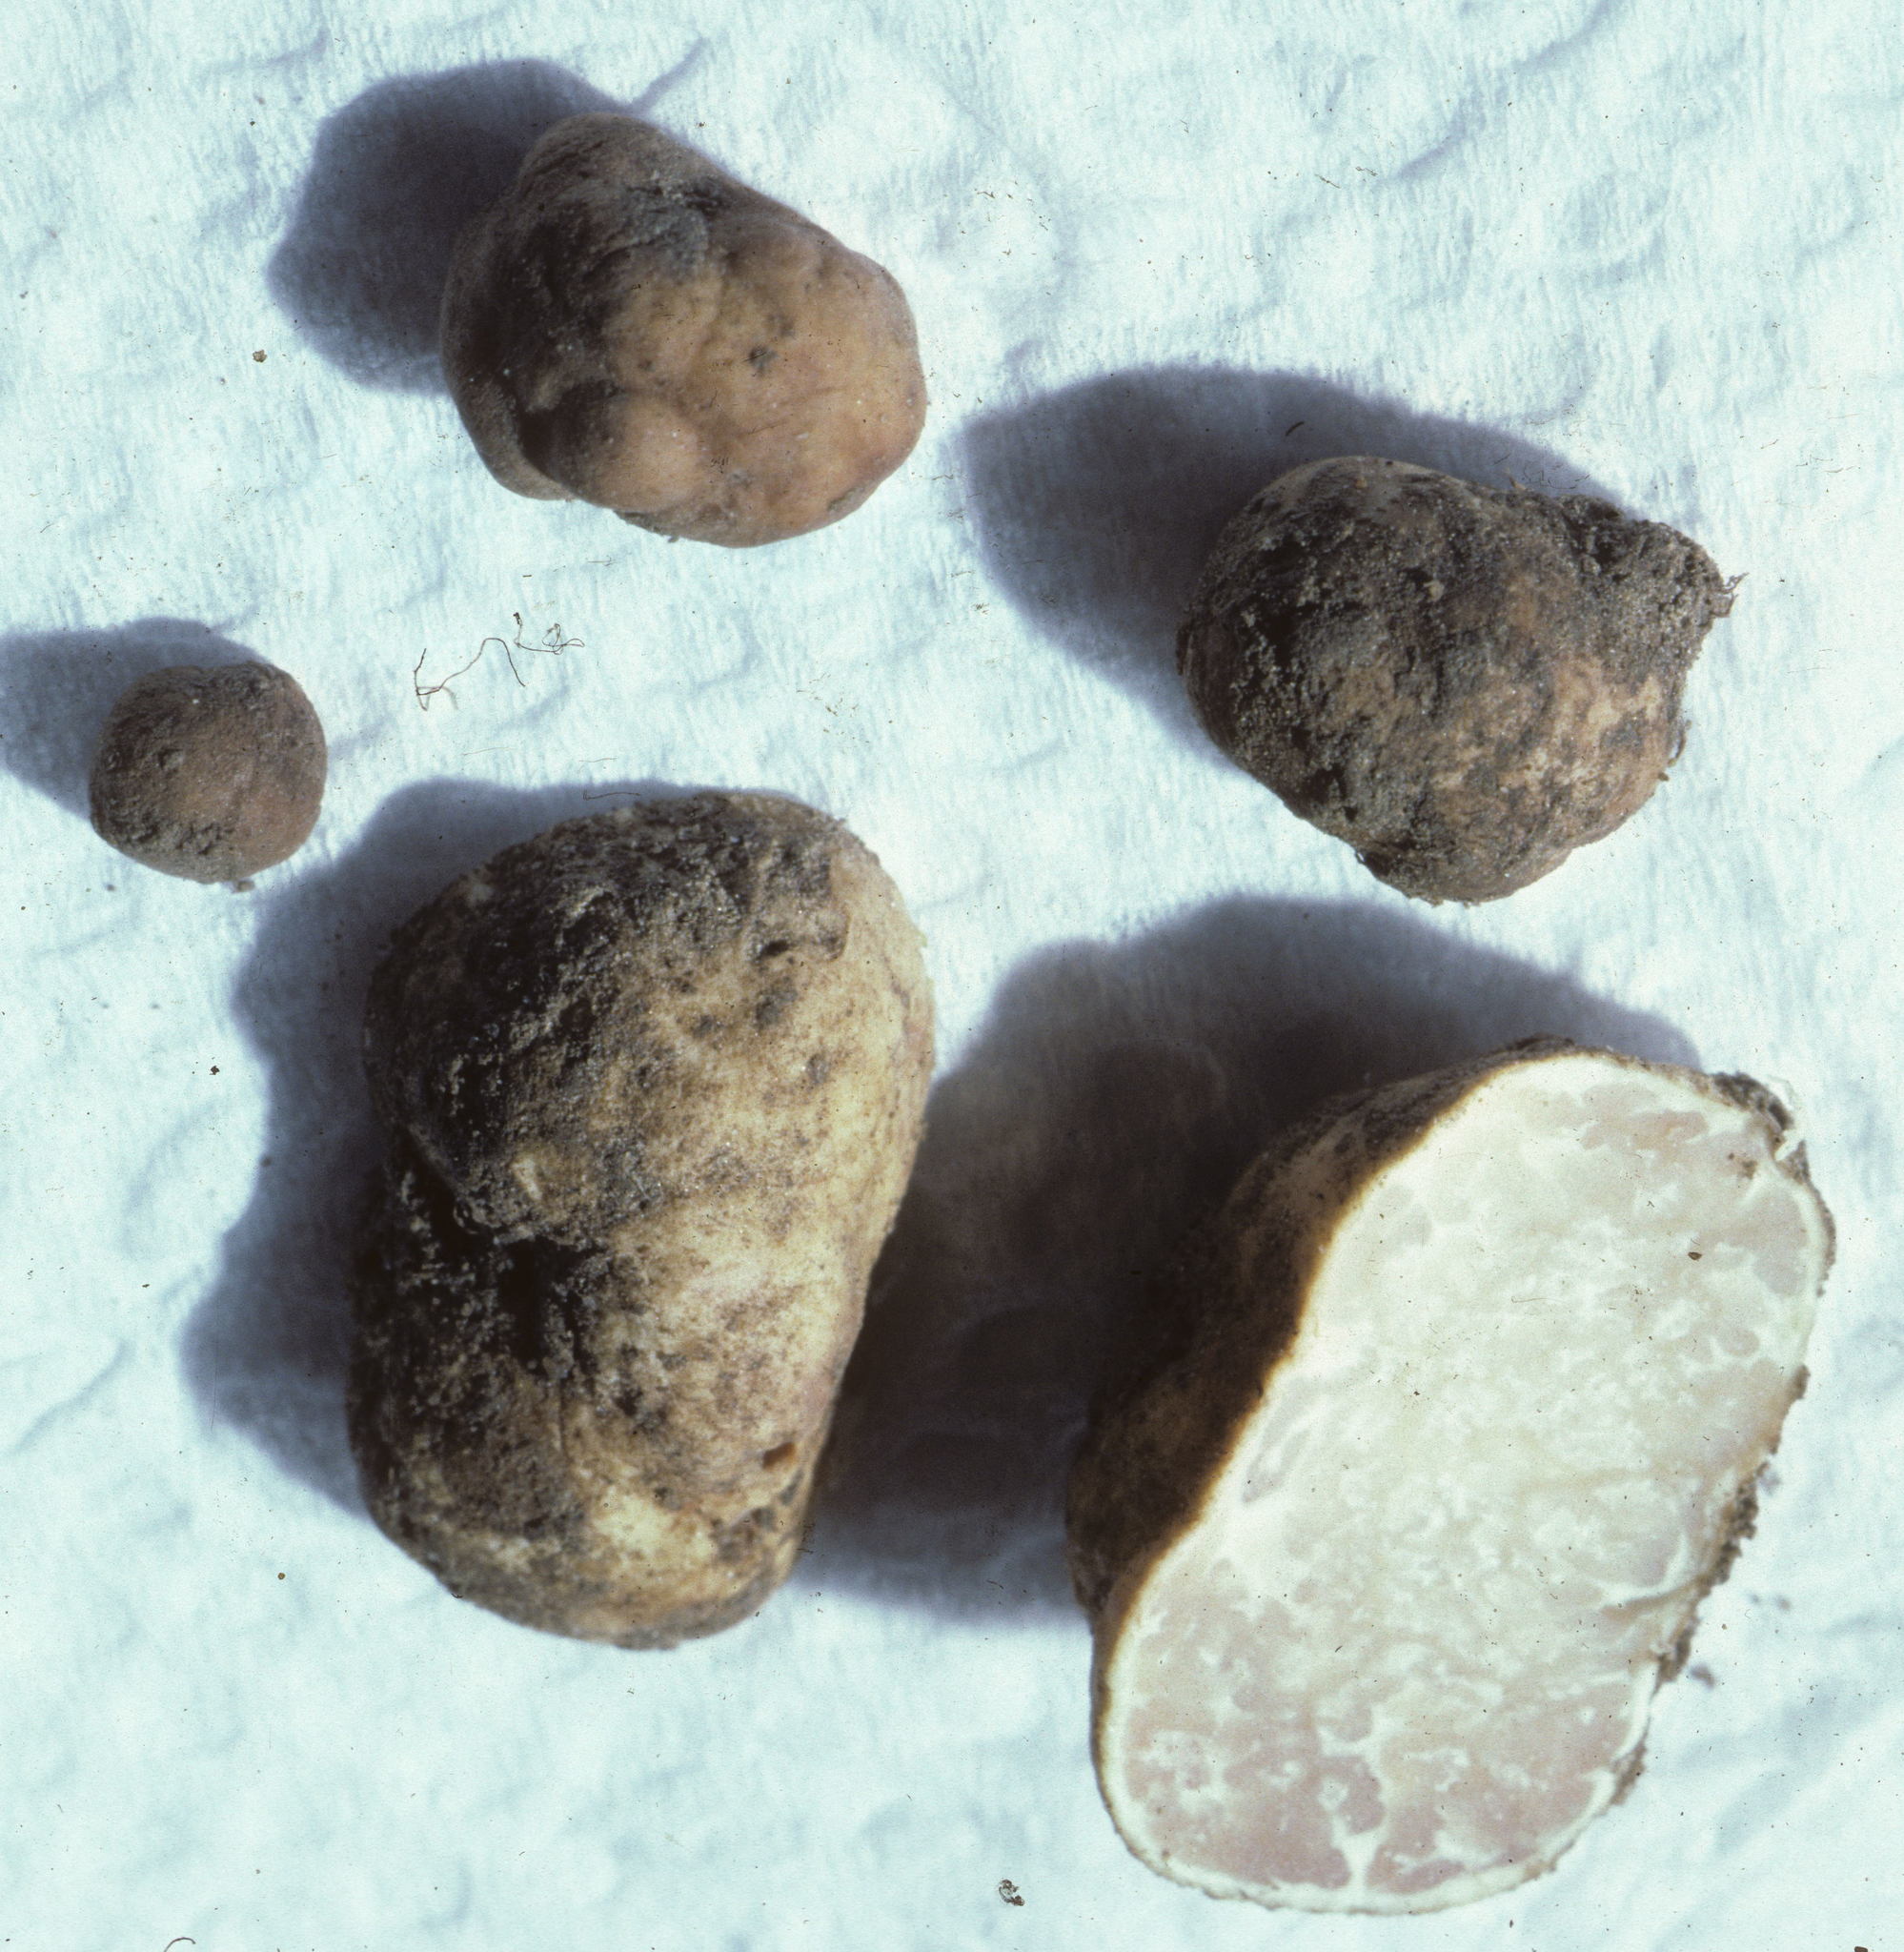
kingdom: Fungi
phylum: Ascomycota
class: Pezizomycetes
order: Pezizales
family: Tuberaceae
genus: Tuber
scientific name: Tuber dryophilum
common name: Wood truffle
